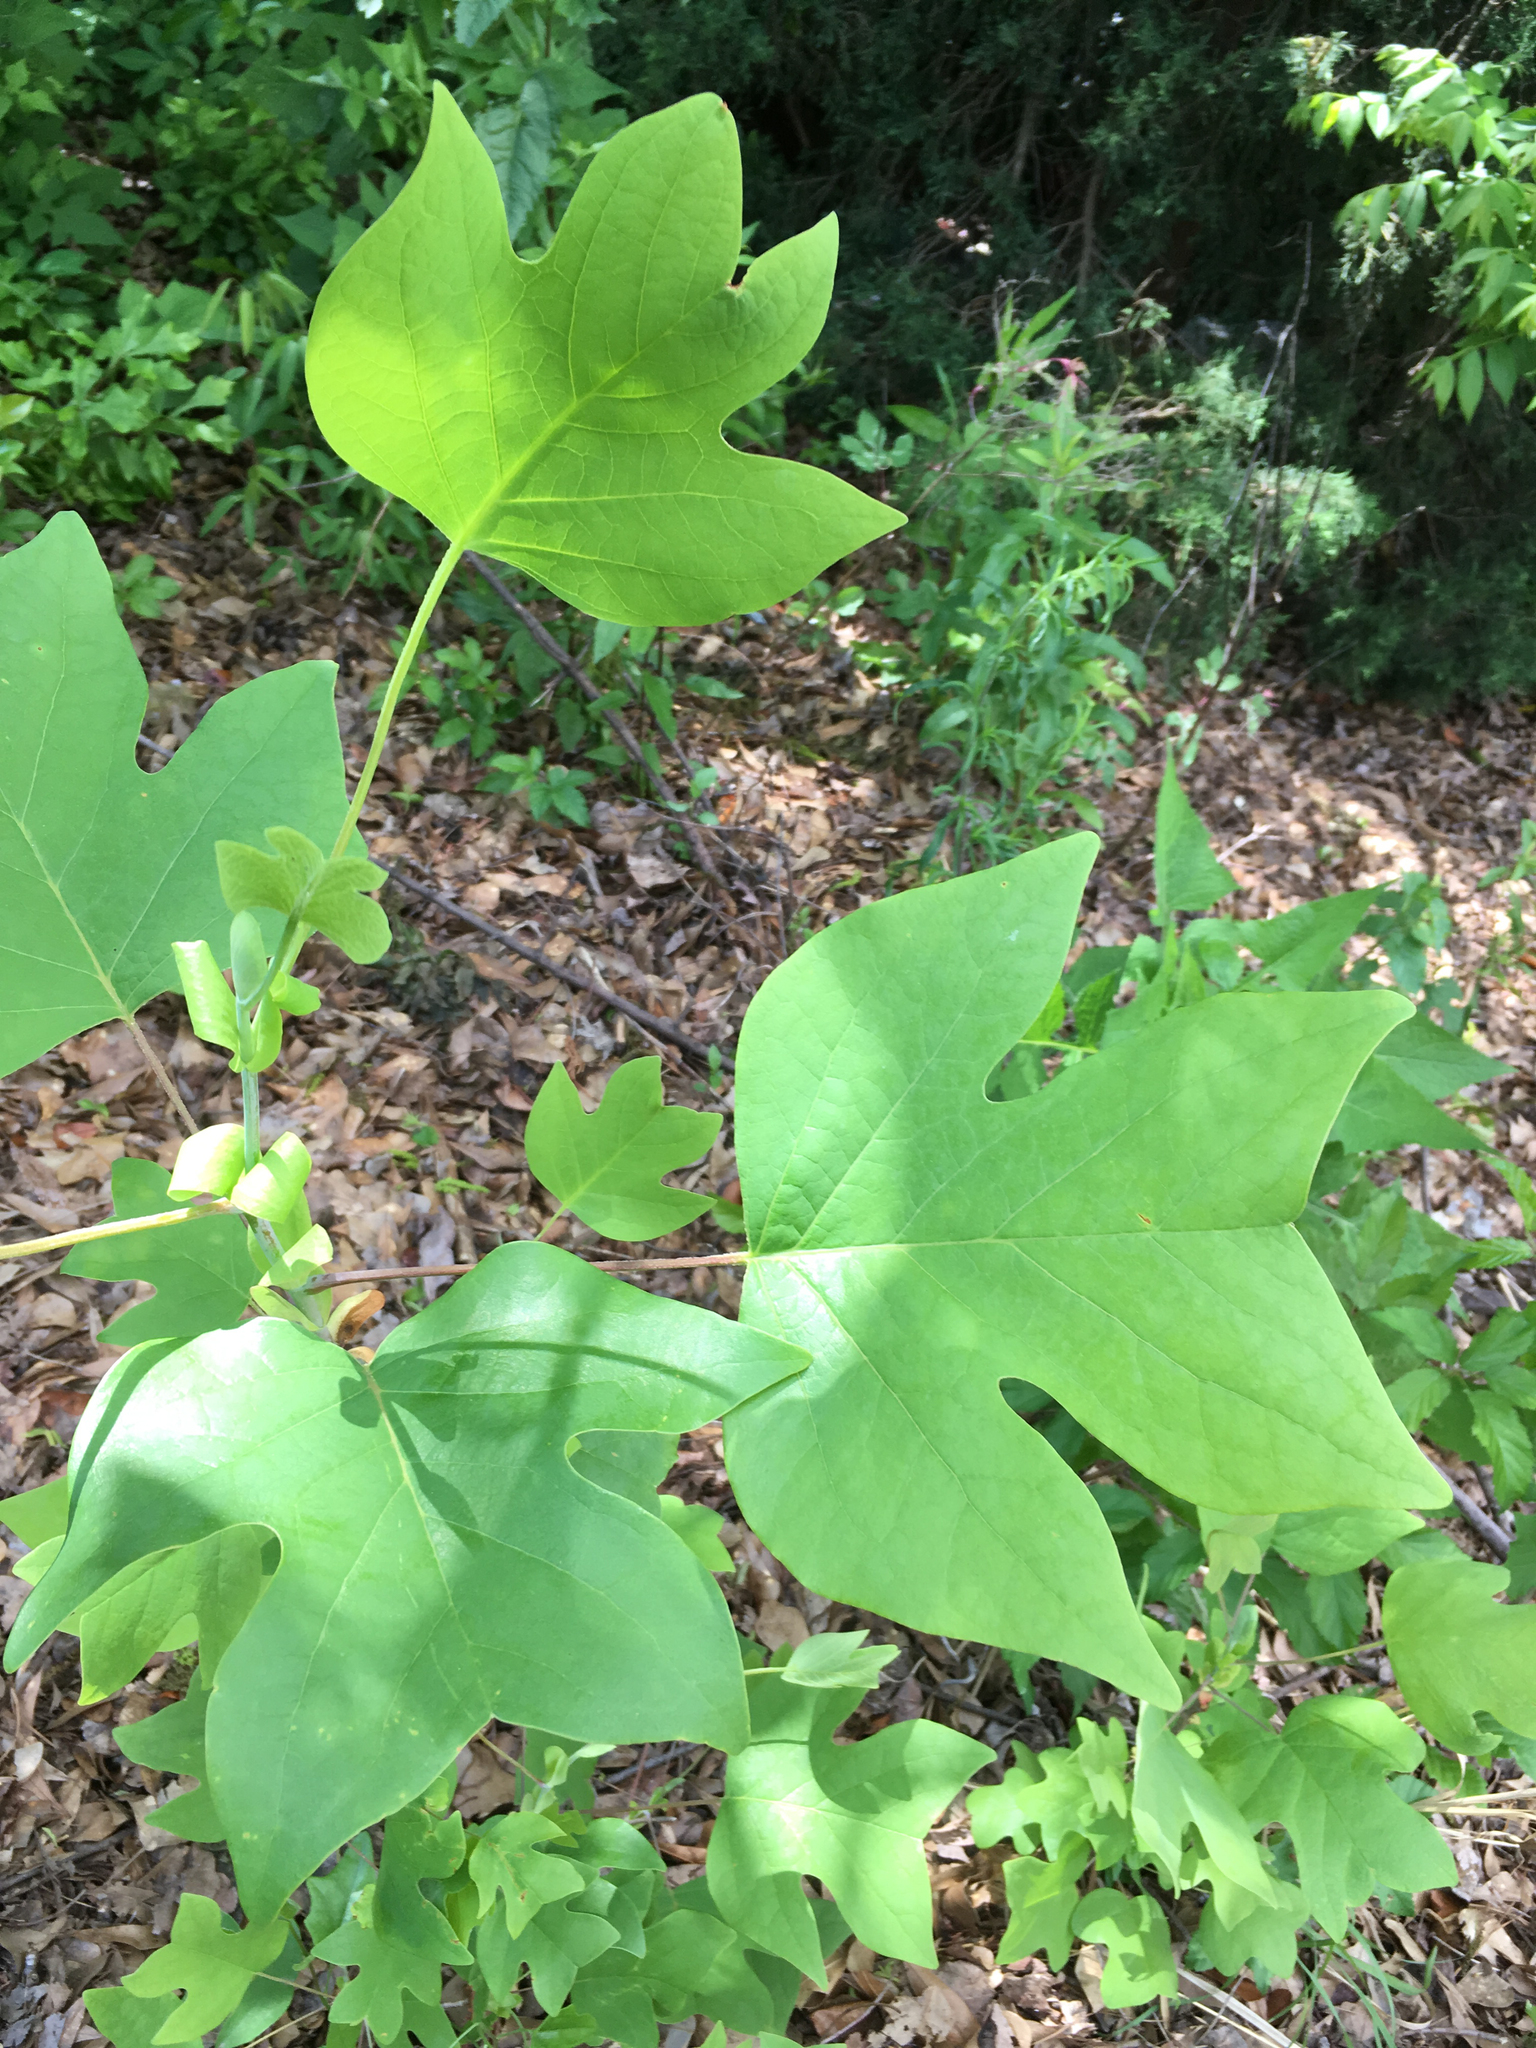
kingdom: Plantae
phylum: Tracheophyta
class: Magnoliopsida
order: Magnoliales
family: Magnoliaceae
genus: Liriodendron
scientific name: Liriodendron tulipifera
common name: Tulip tree
